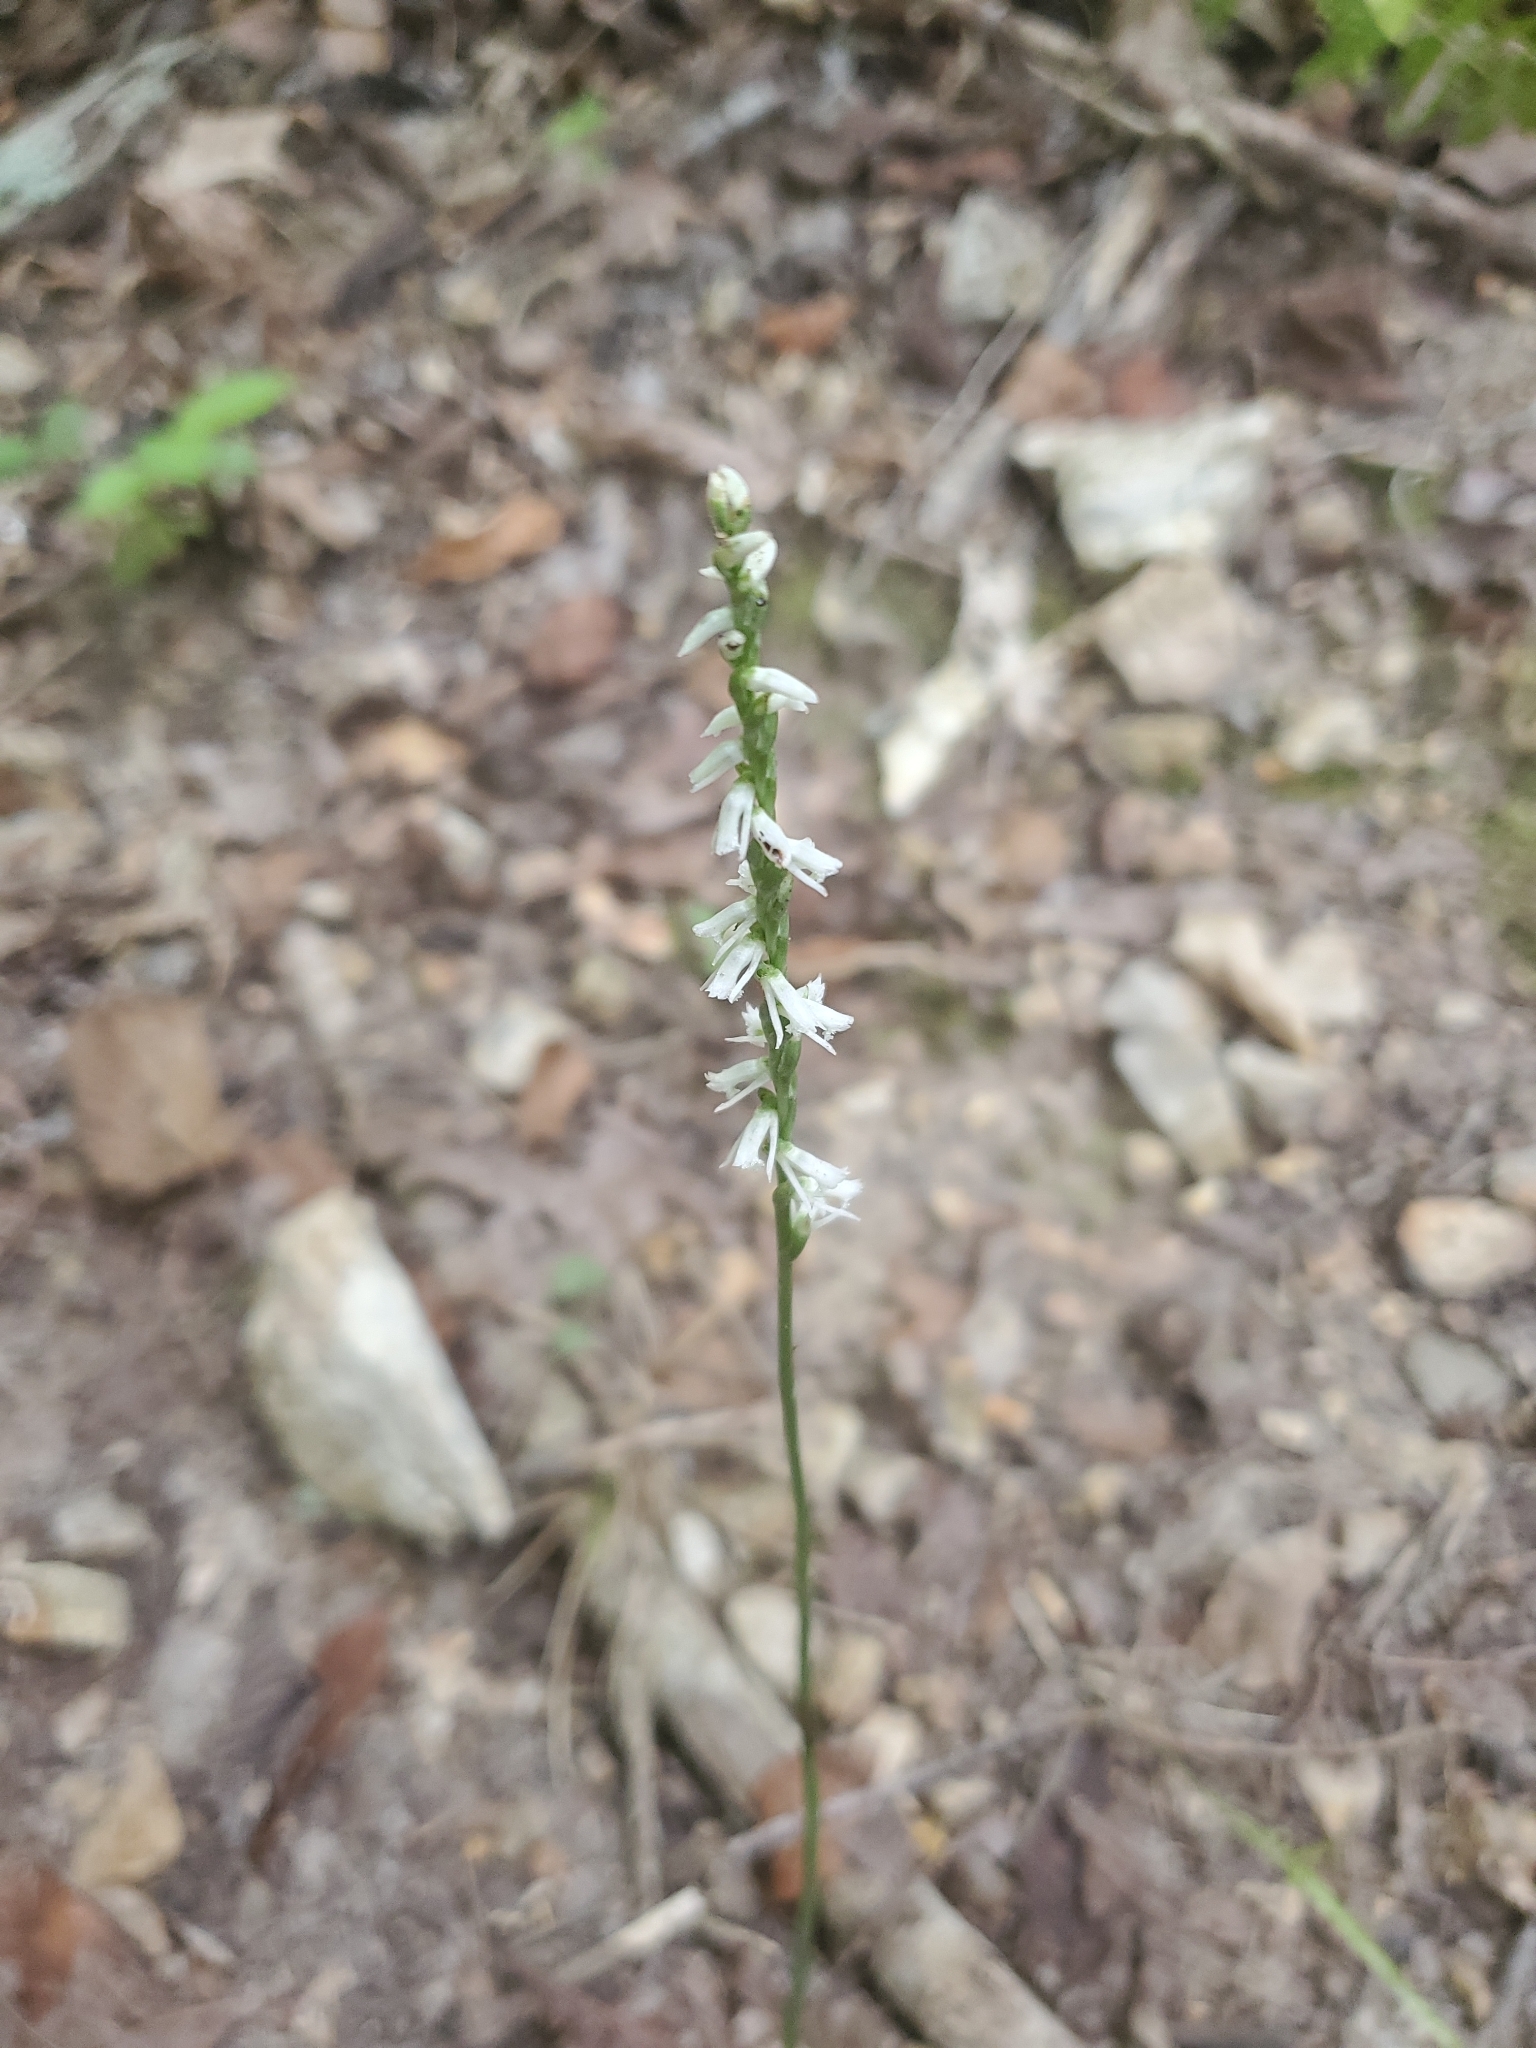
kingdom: Plantae
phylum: Tracheophyta
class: Liliopsida
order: Asparagales
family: Orchidaceae
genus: Spiranthes
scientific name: Spiranthes lacera
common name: Northern slender ladies'-tresses
